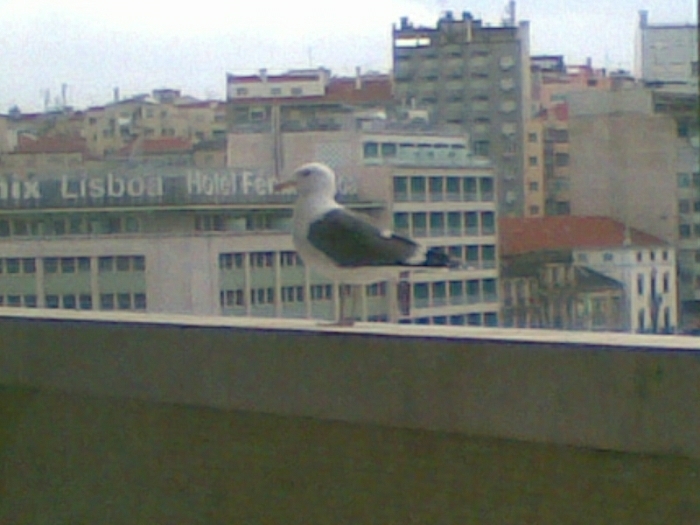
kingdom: Animalia
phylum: Chordata
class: Aves
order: Charadriiformes
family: Laridae
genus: Larus
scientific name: Larus fuscus
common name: Lesser black-backed gull
